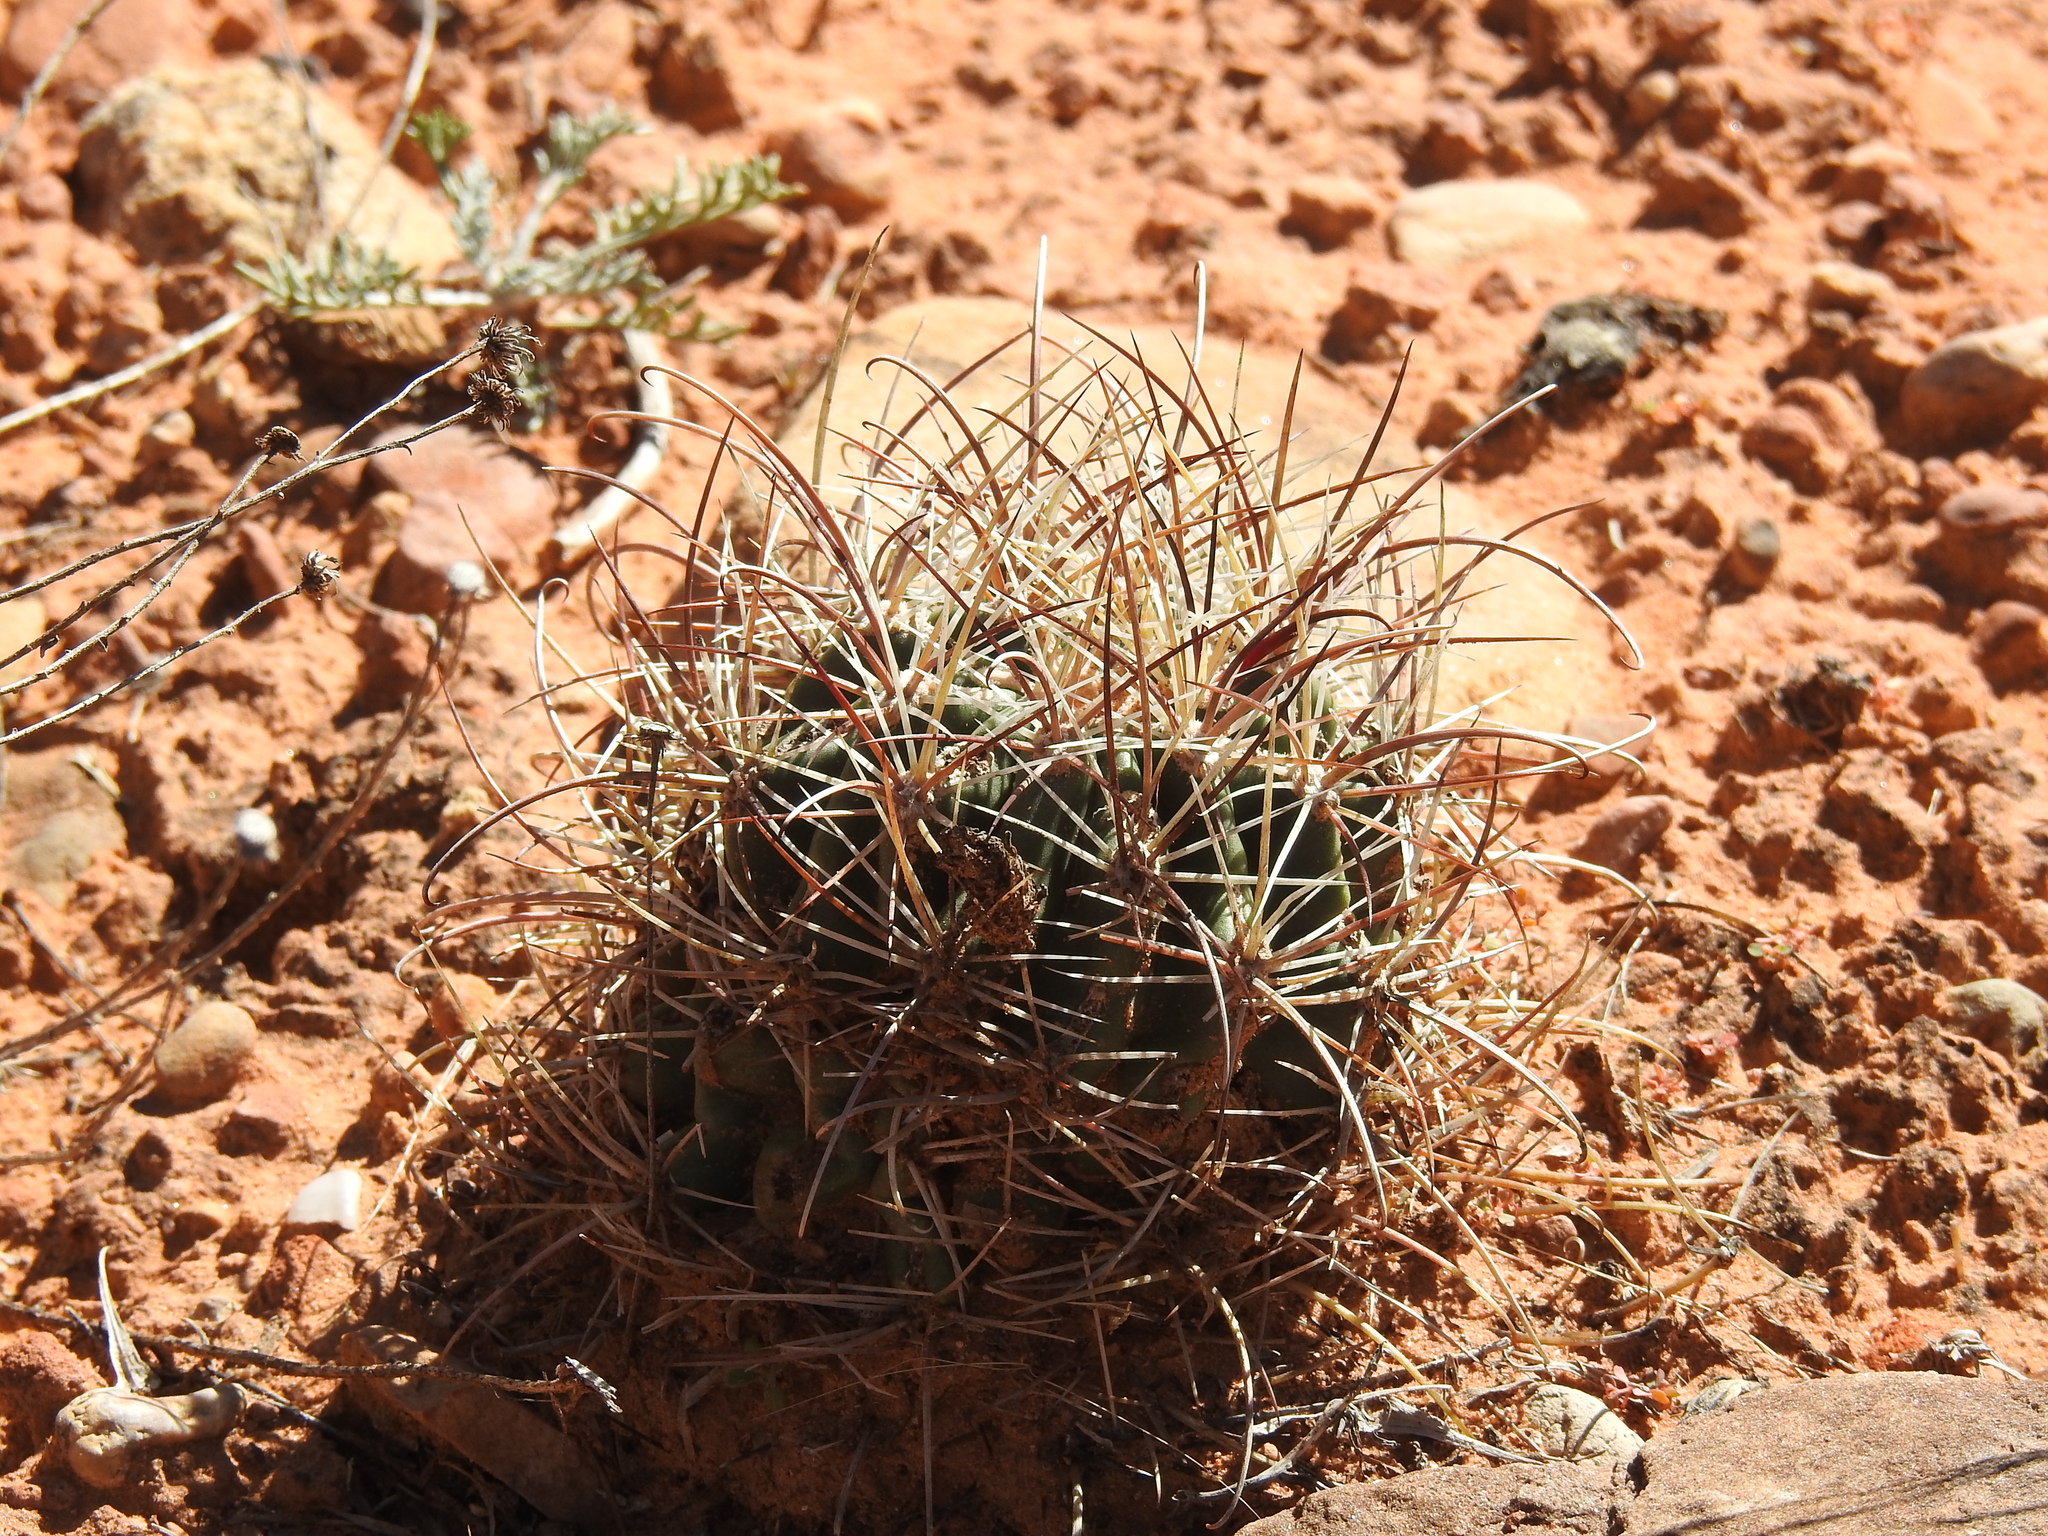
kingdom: Plantae
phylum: Tracheophyta
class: Magnoliopsida
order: Caryophyllales
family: Cactaceae
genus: Sclerocactus
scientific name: Sclerocactus parviflorus
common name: Small-flower fishhook cactus
